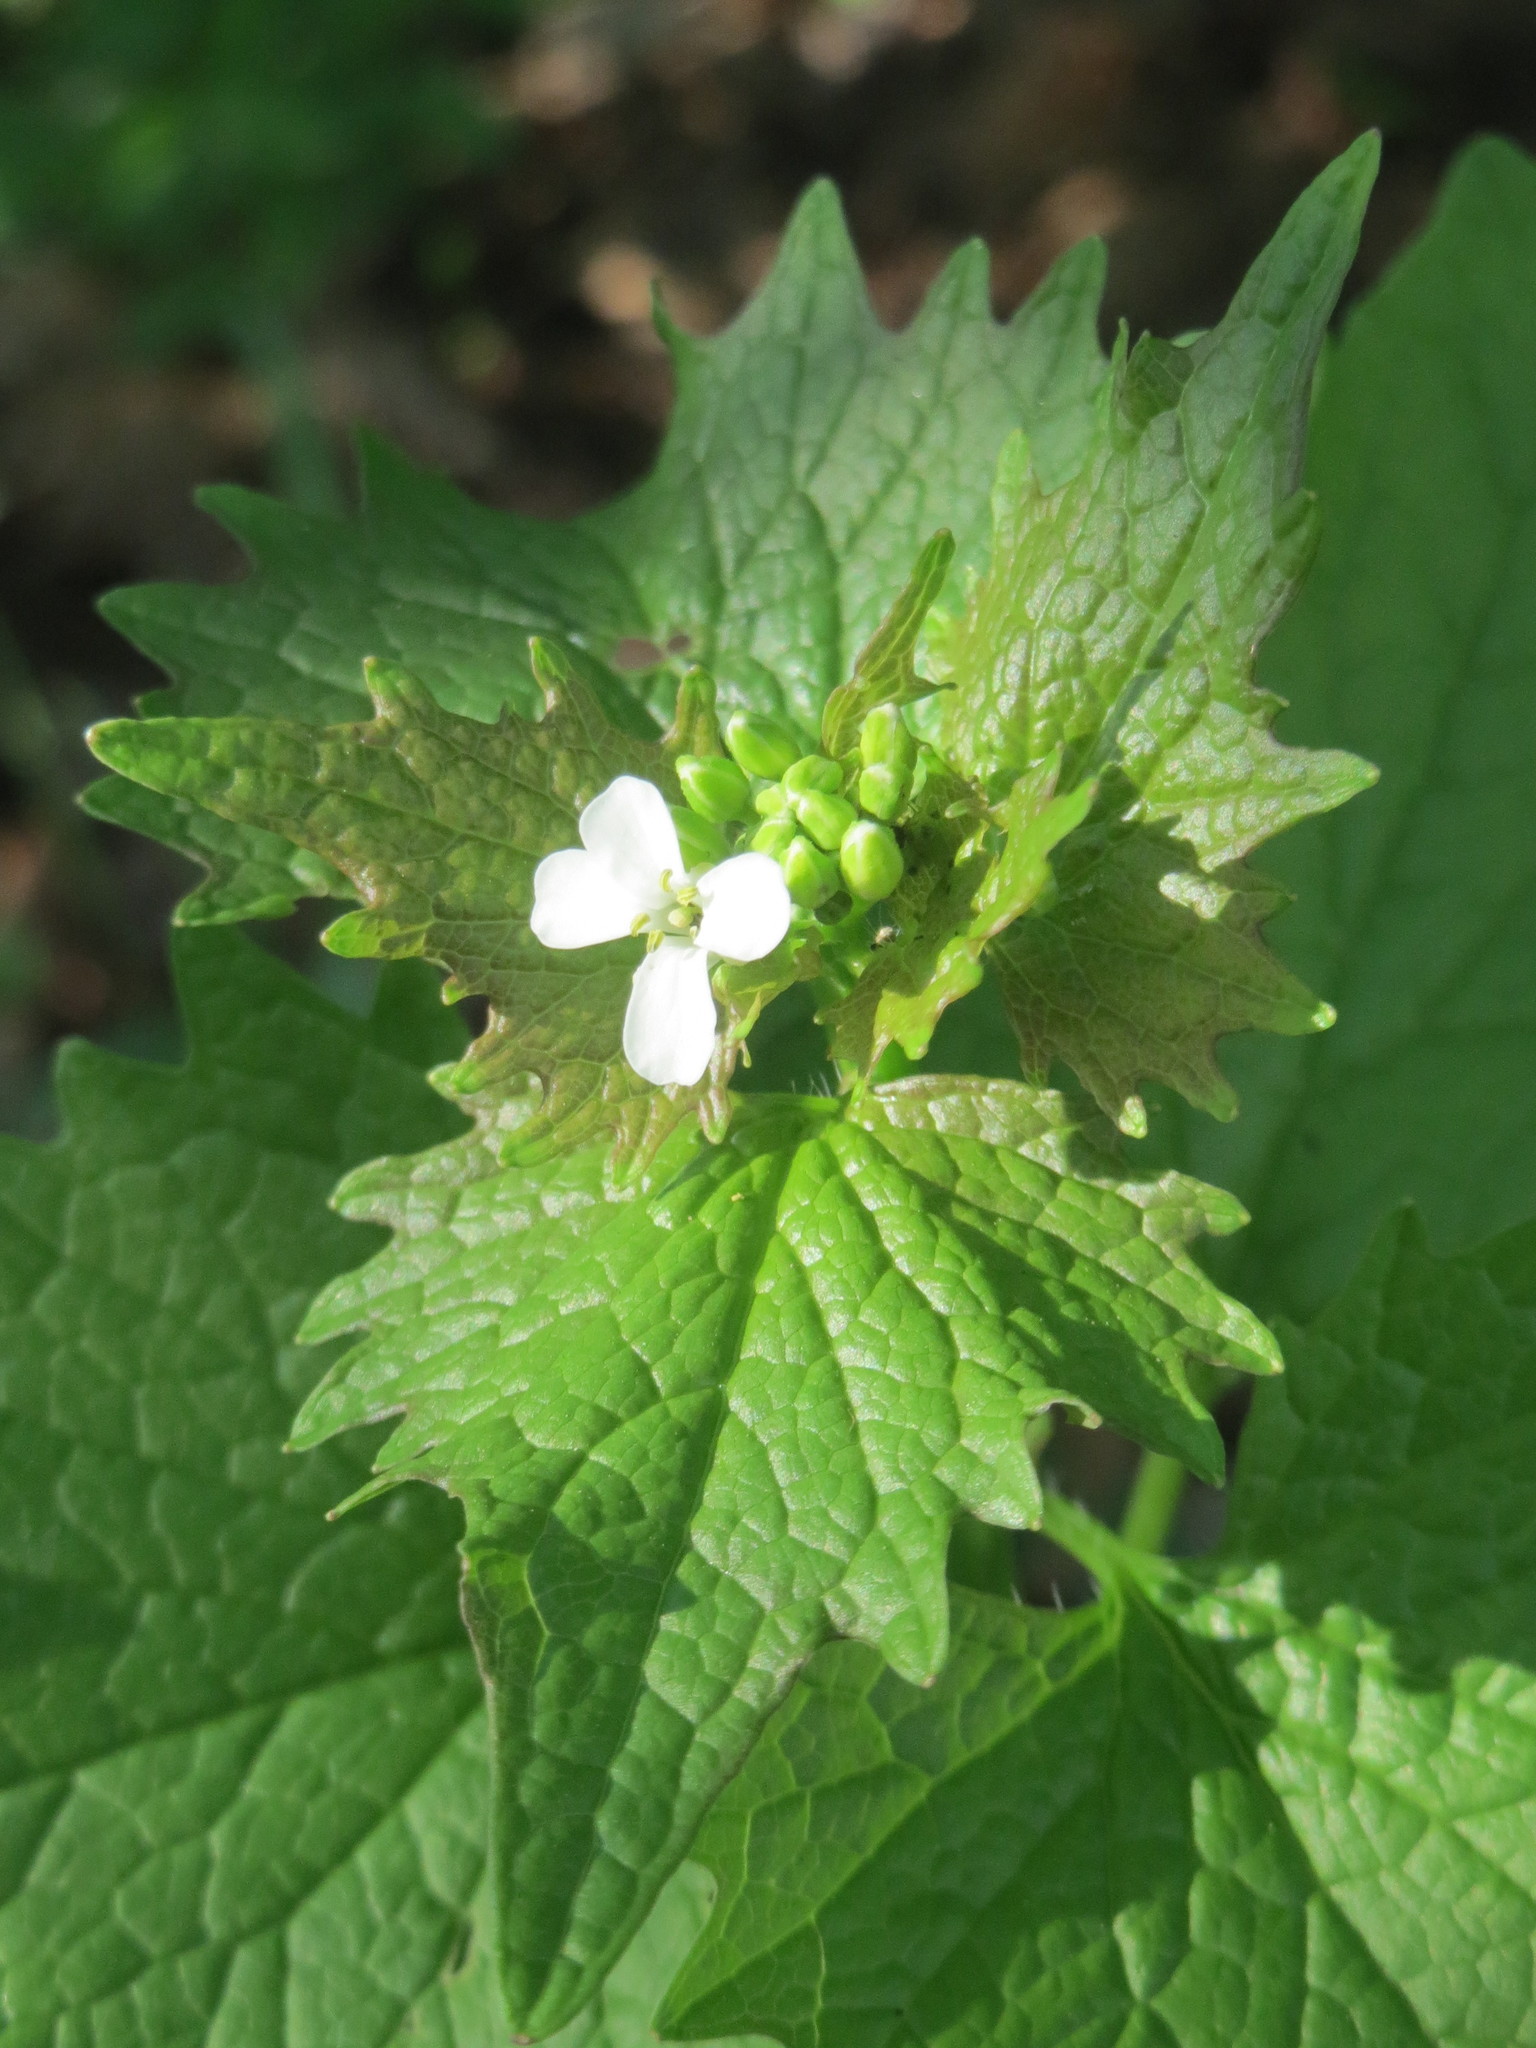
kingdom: Plantae
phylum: Tracheophyta
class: Magnoliopsida
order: Brassicales
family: Brassicaceae
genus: Alliaria
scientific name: Alliaria petiolata
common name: Garlic mustard
